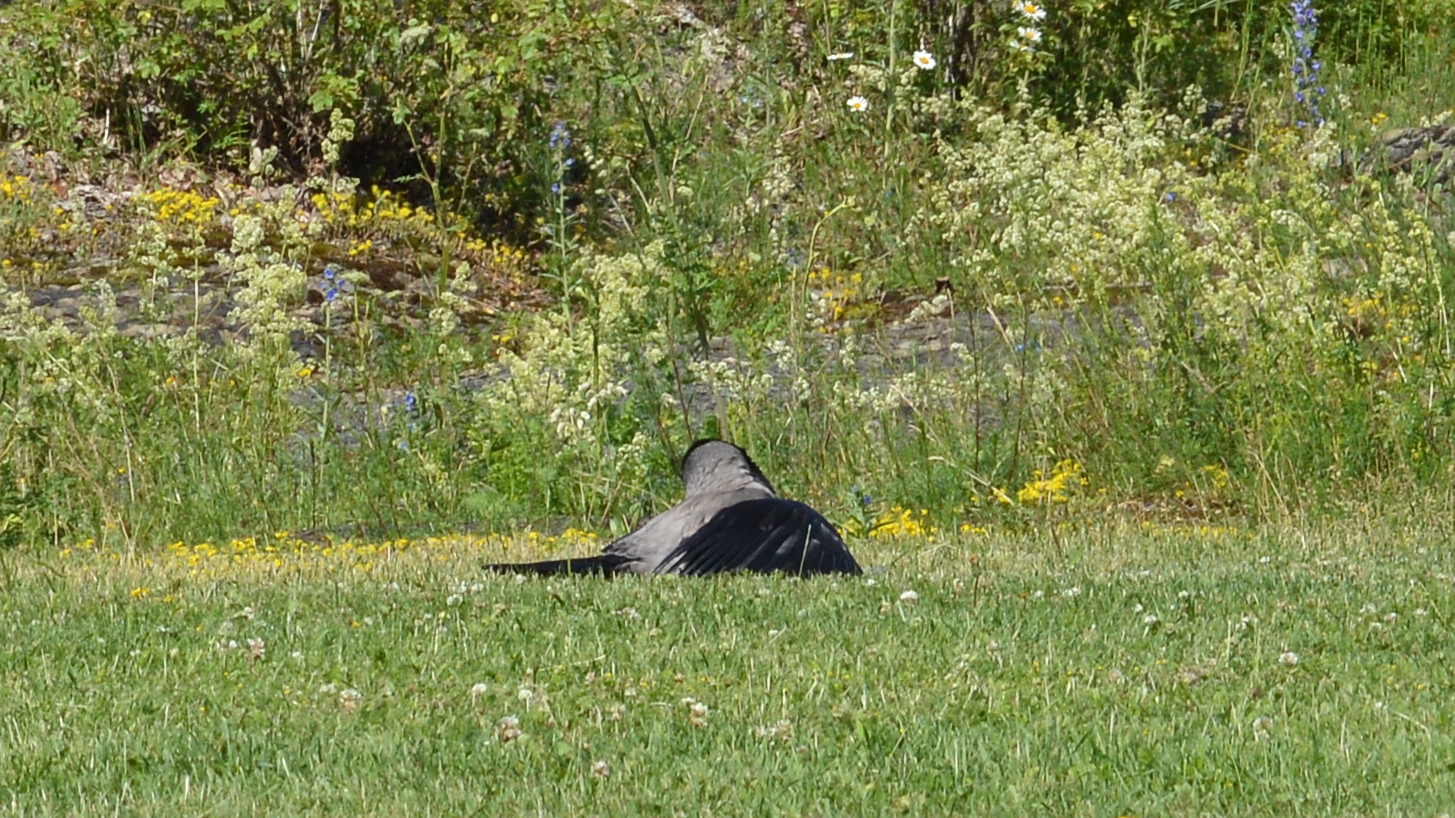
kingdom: Animalia
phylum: Chordata
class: Aves
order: Passeriformes
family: Corvidae
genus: Corvus
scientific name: Corvus cornix
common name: Hooded crow
